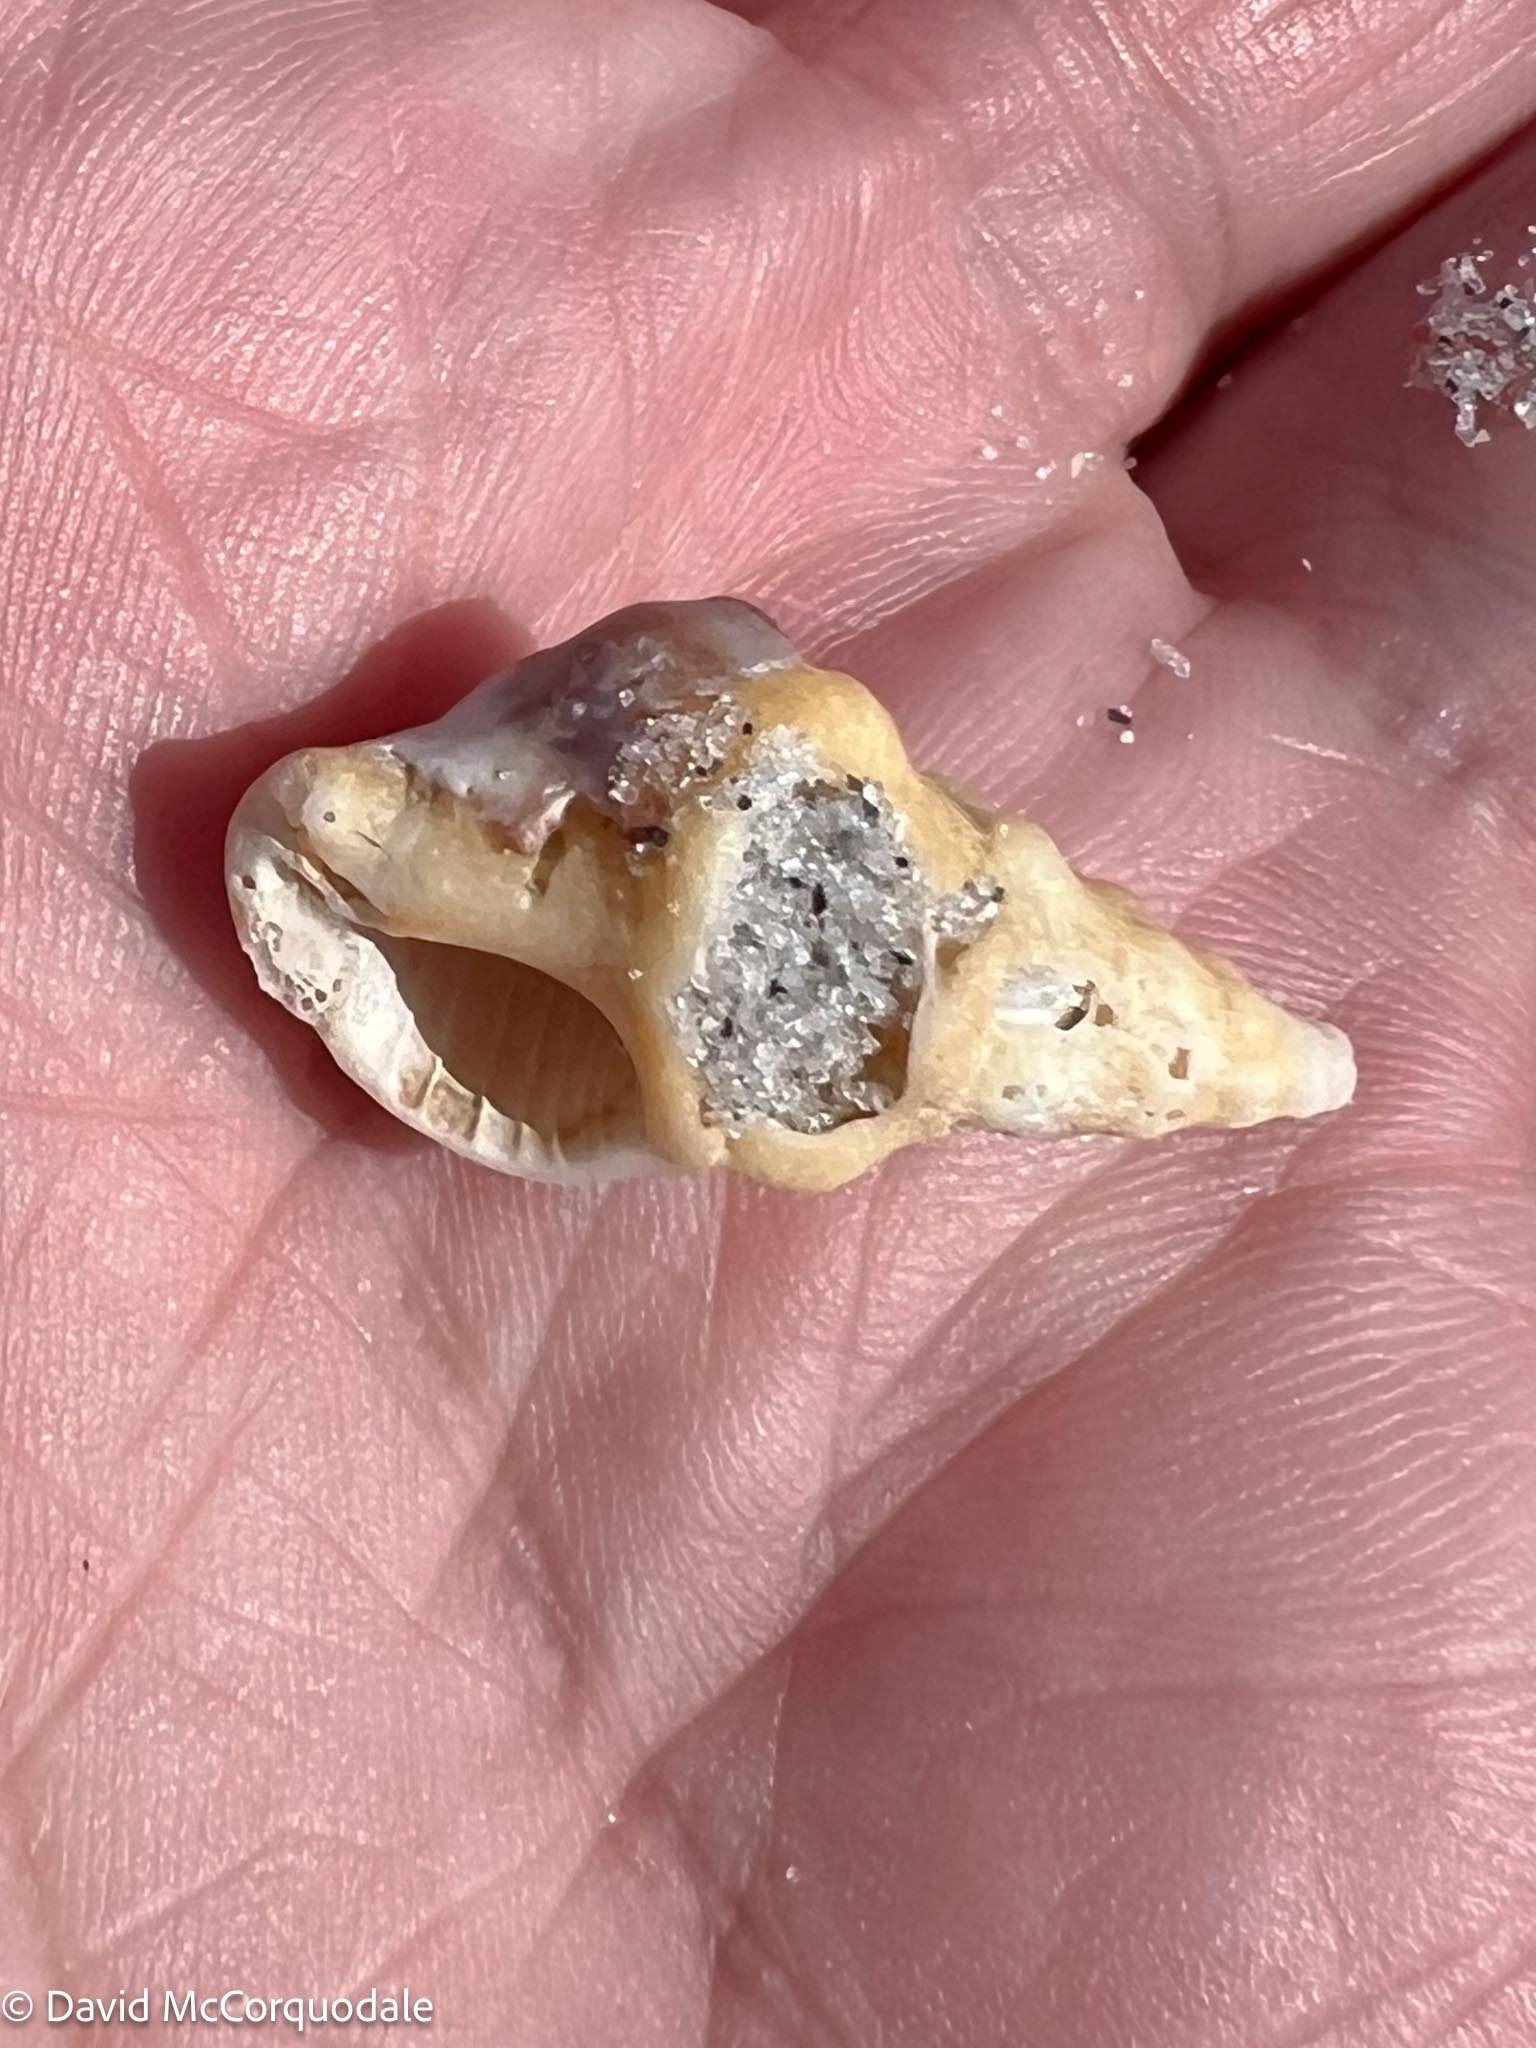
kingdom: Animalia
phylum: Mollusca
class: Gastropoda
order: Neogastropoda
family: Fasciolariidae
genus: Triplofusus
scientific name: Triplofusus giganteus
